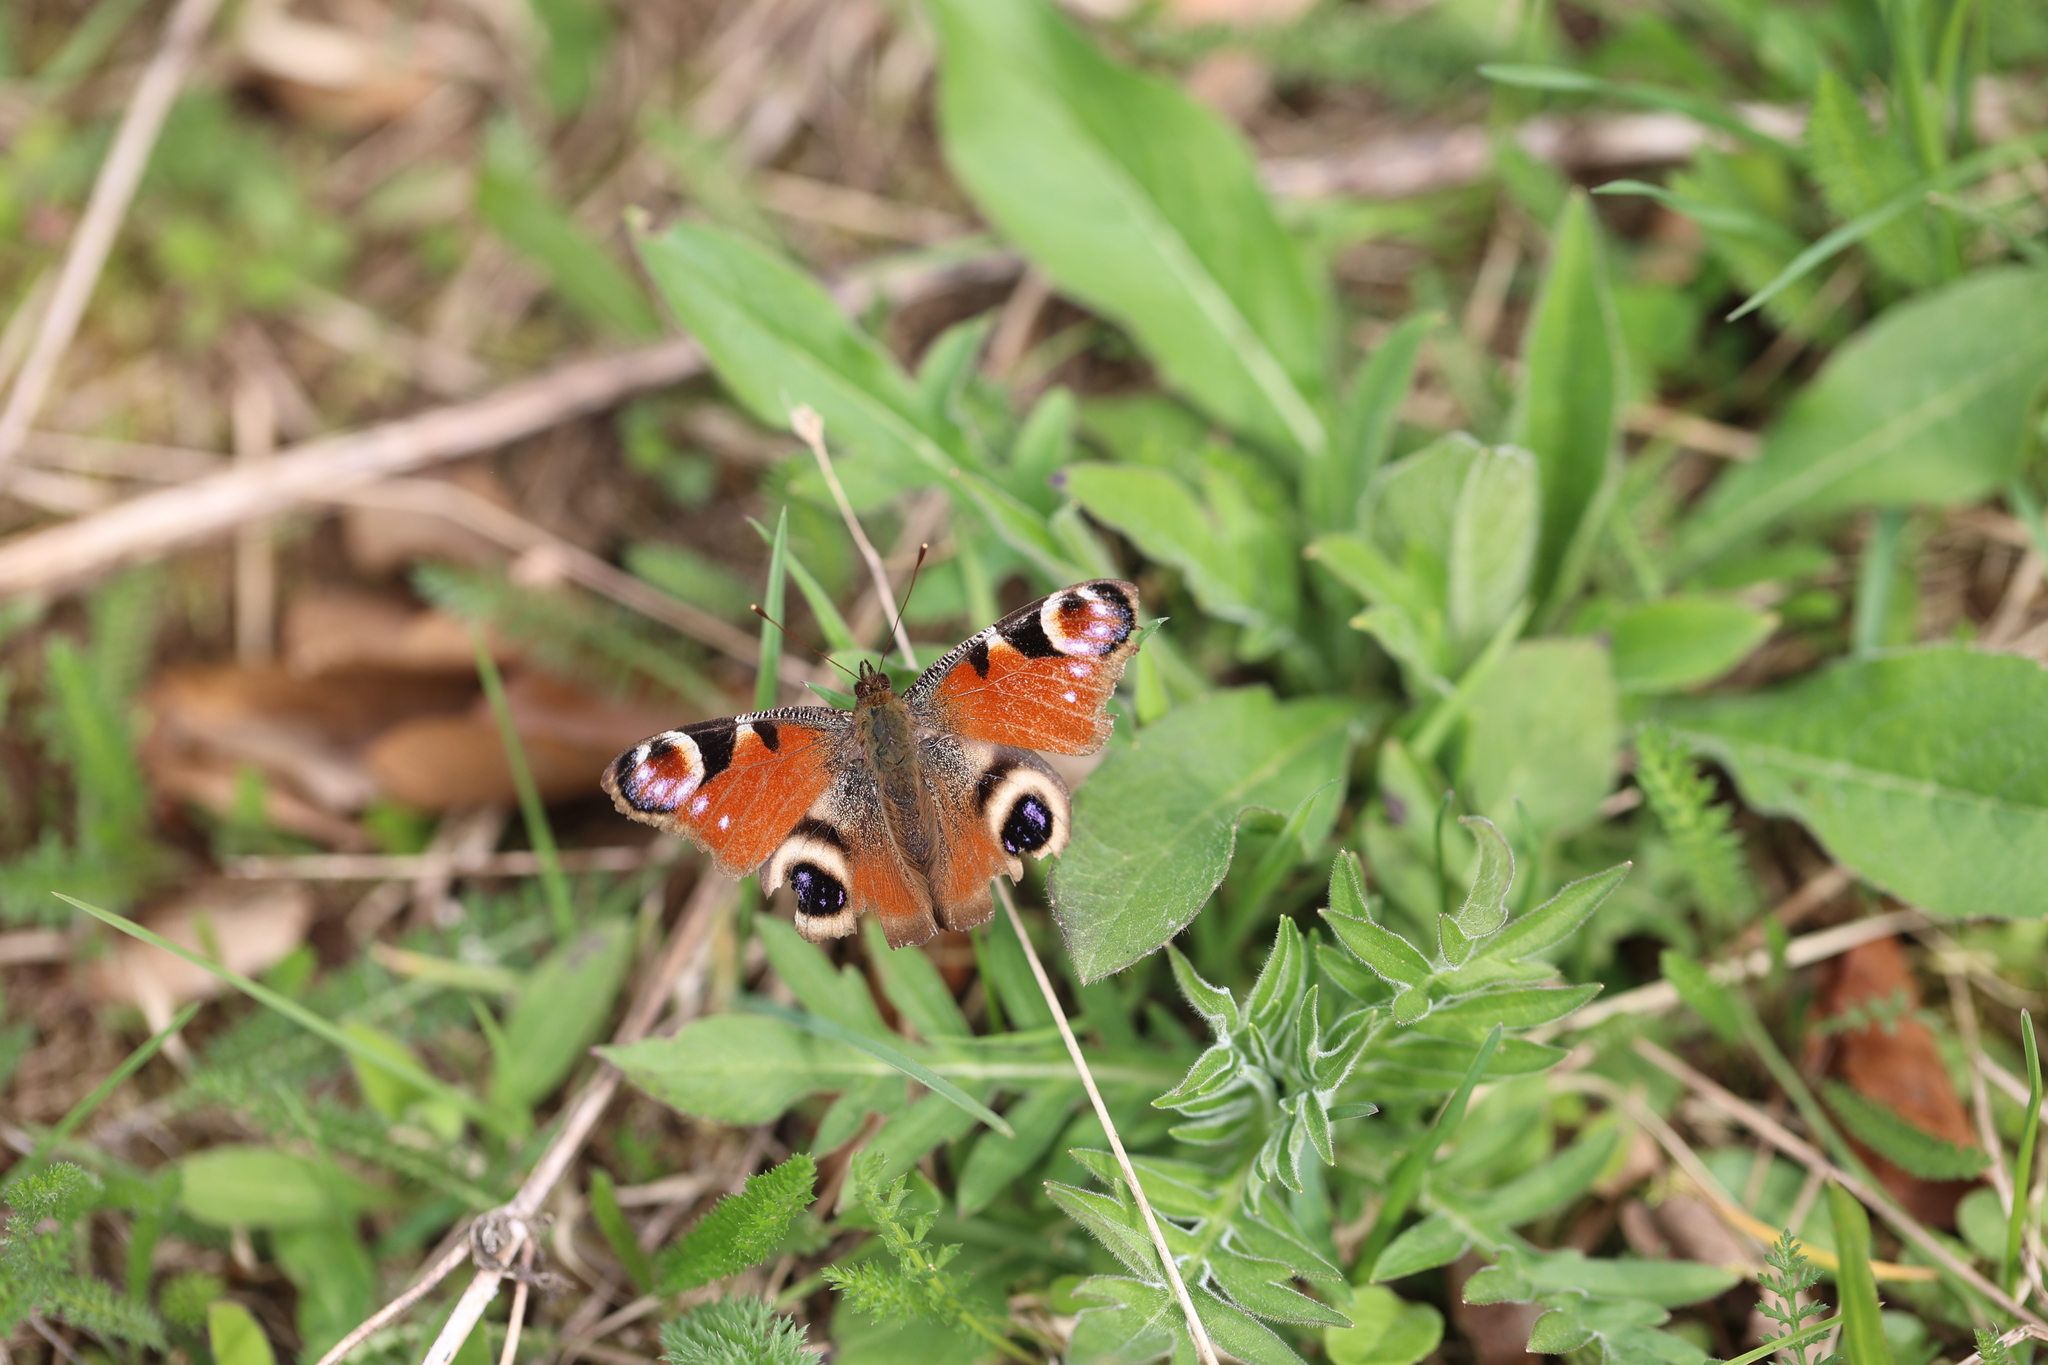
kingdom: Animalia
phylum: Arthropoda
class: Insecta
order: Lepidoptera
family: Nymphalidae
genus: Aglais
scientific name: Aglais io
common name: Peacock
